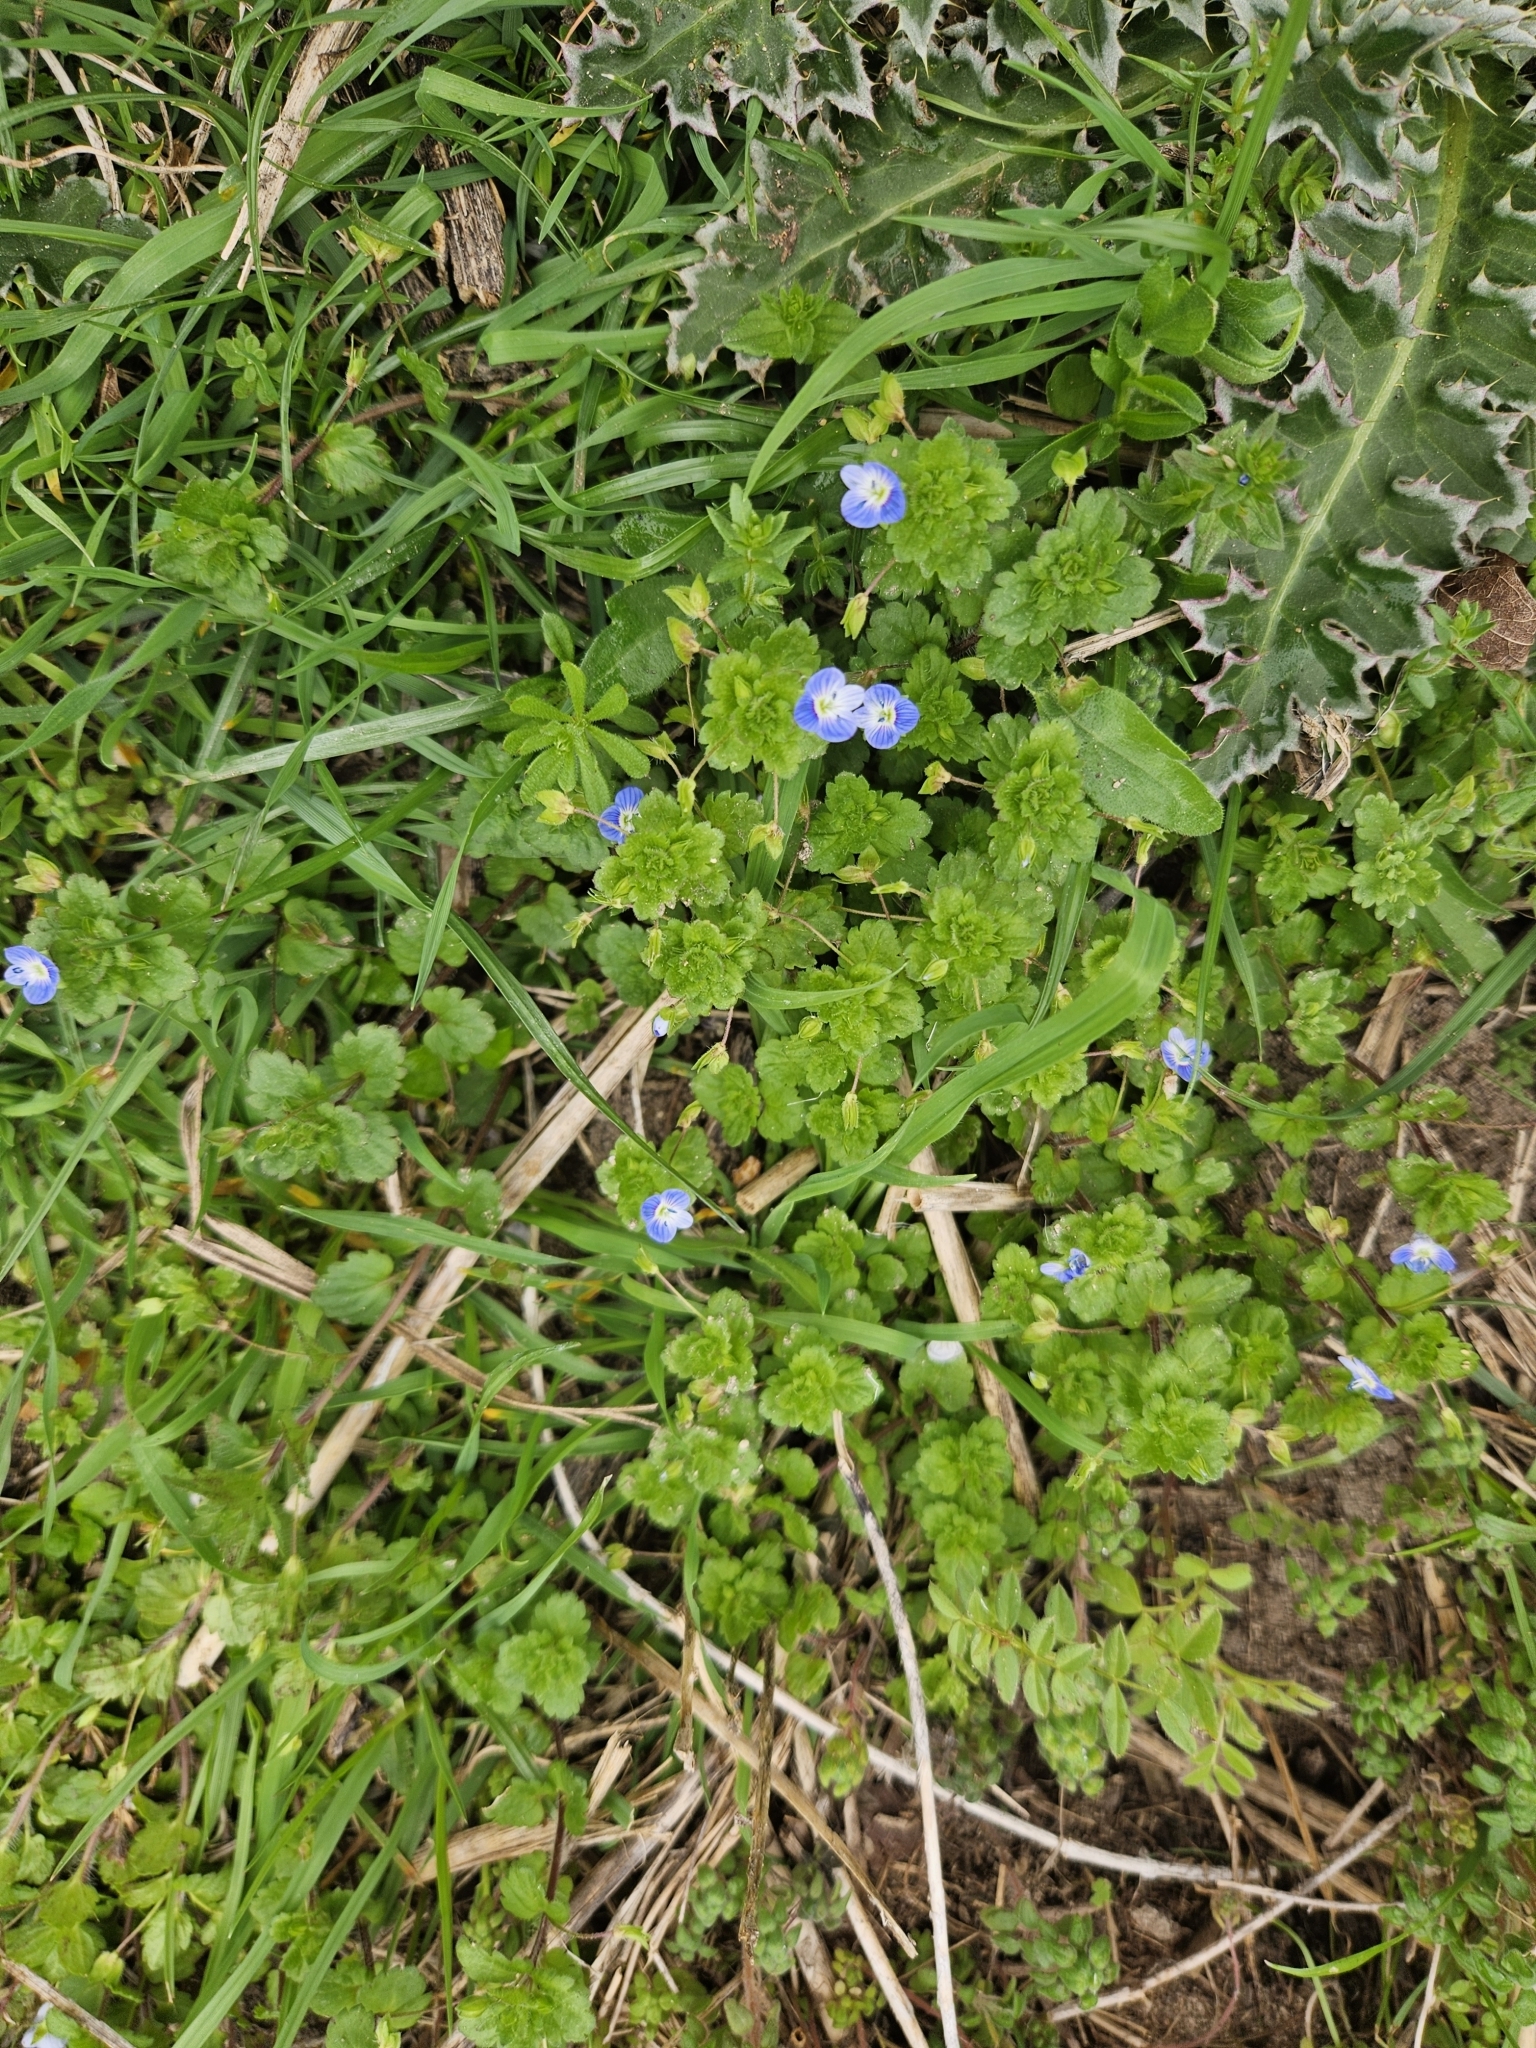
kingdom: Plantae
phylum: Tracheophyta
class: Magnoliopsida
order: Lamiales
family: Plantaginaceae
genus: Veronica
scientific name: Veronica persica
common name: Common field-speedwell
